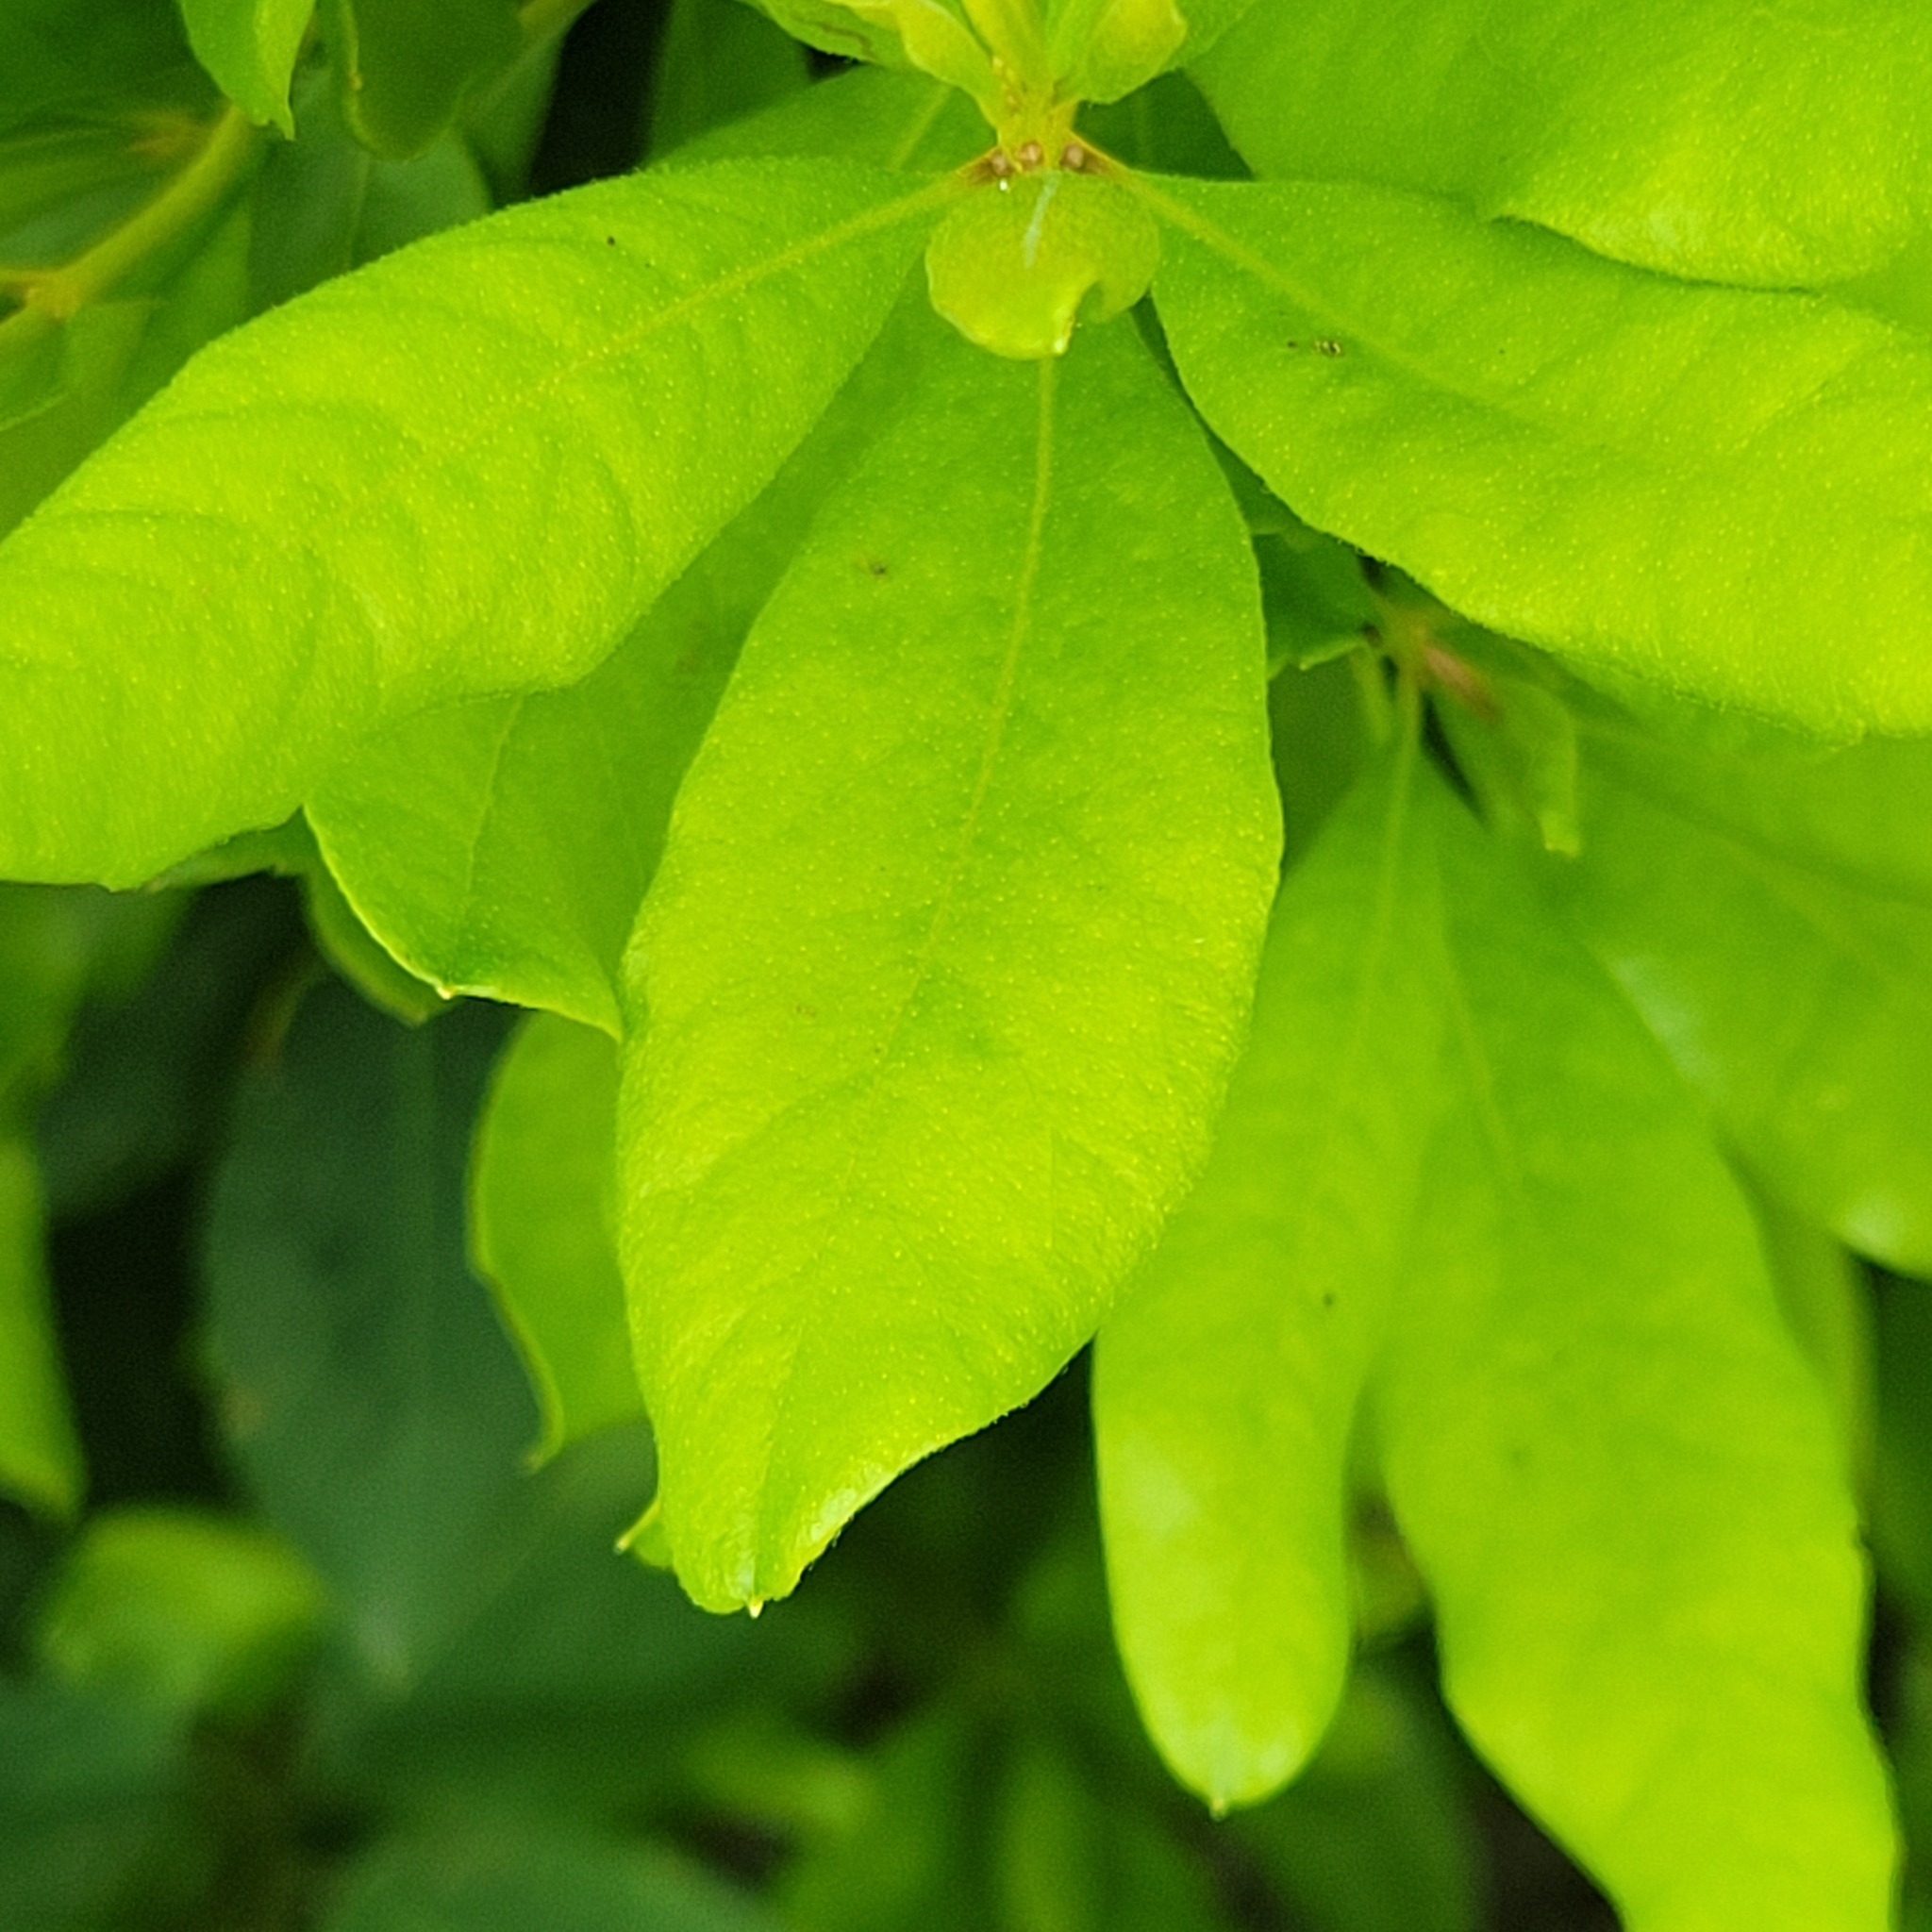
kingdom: Plantae
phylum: Tracheophyta
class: Magnoliopsida
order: Fagales
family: Myricaceae
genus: Morella
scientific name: Morella pensylvanica
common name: Northern bayberry
